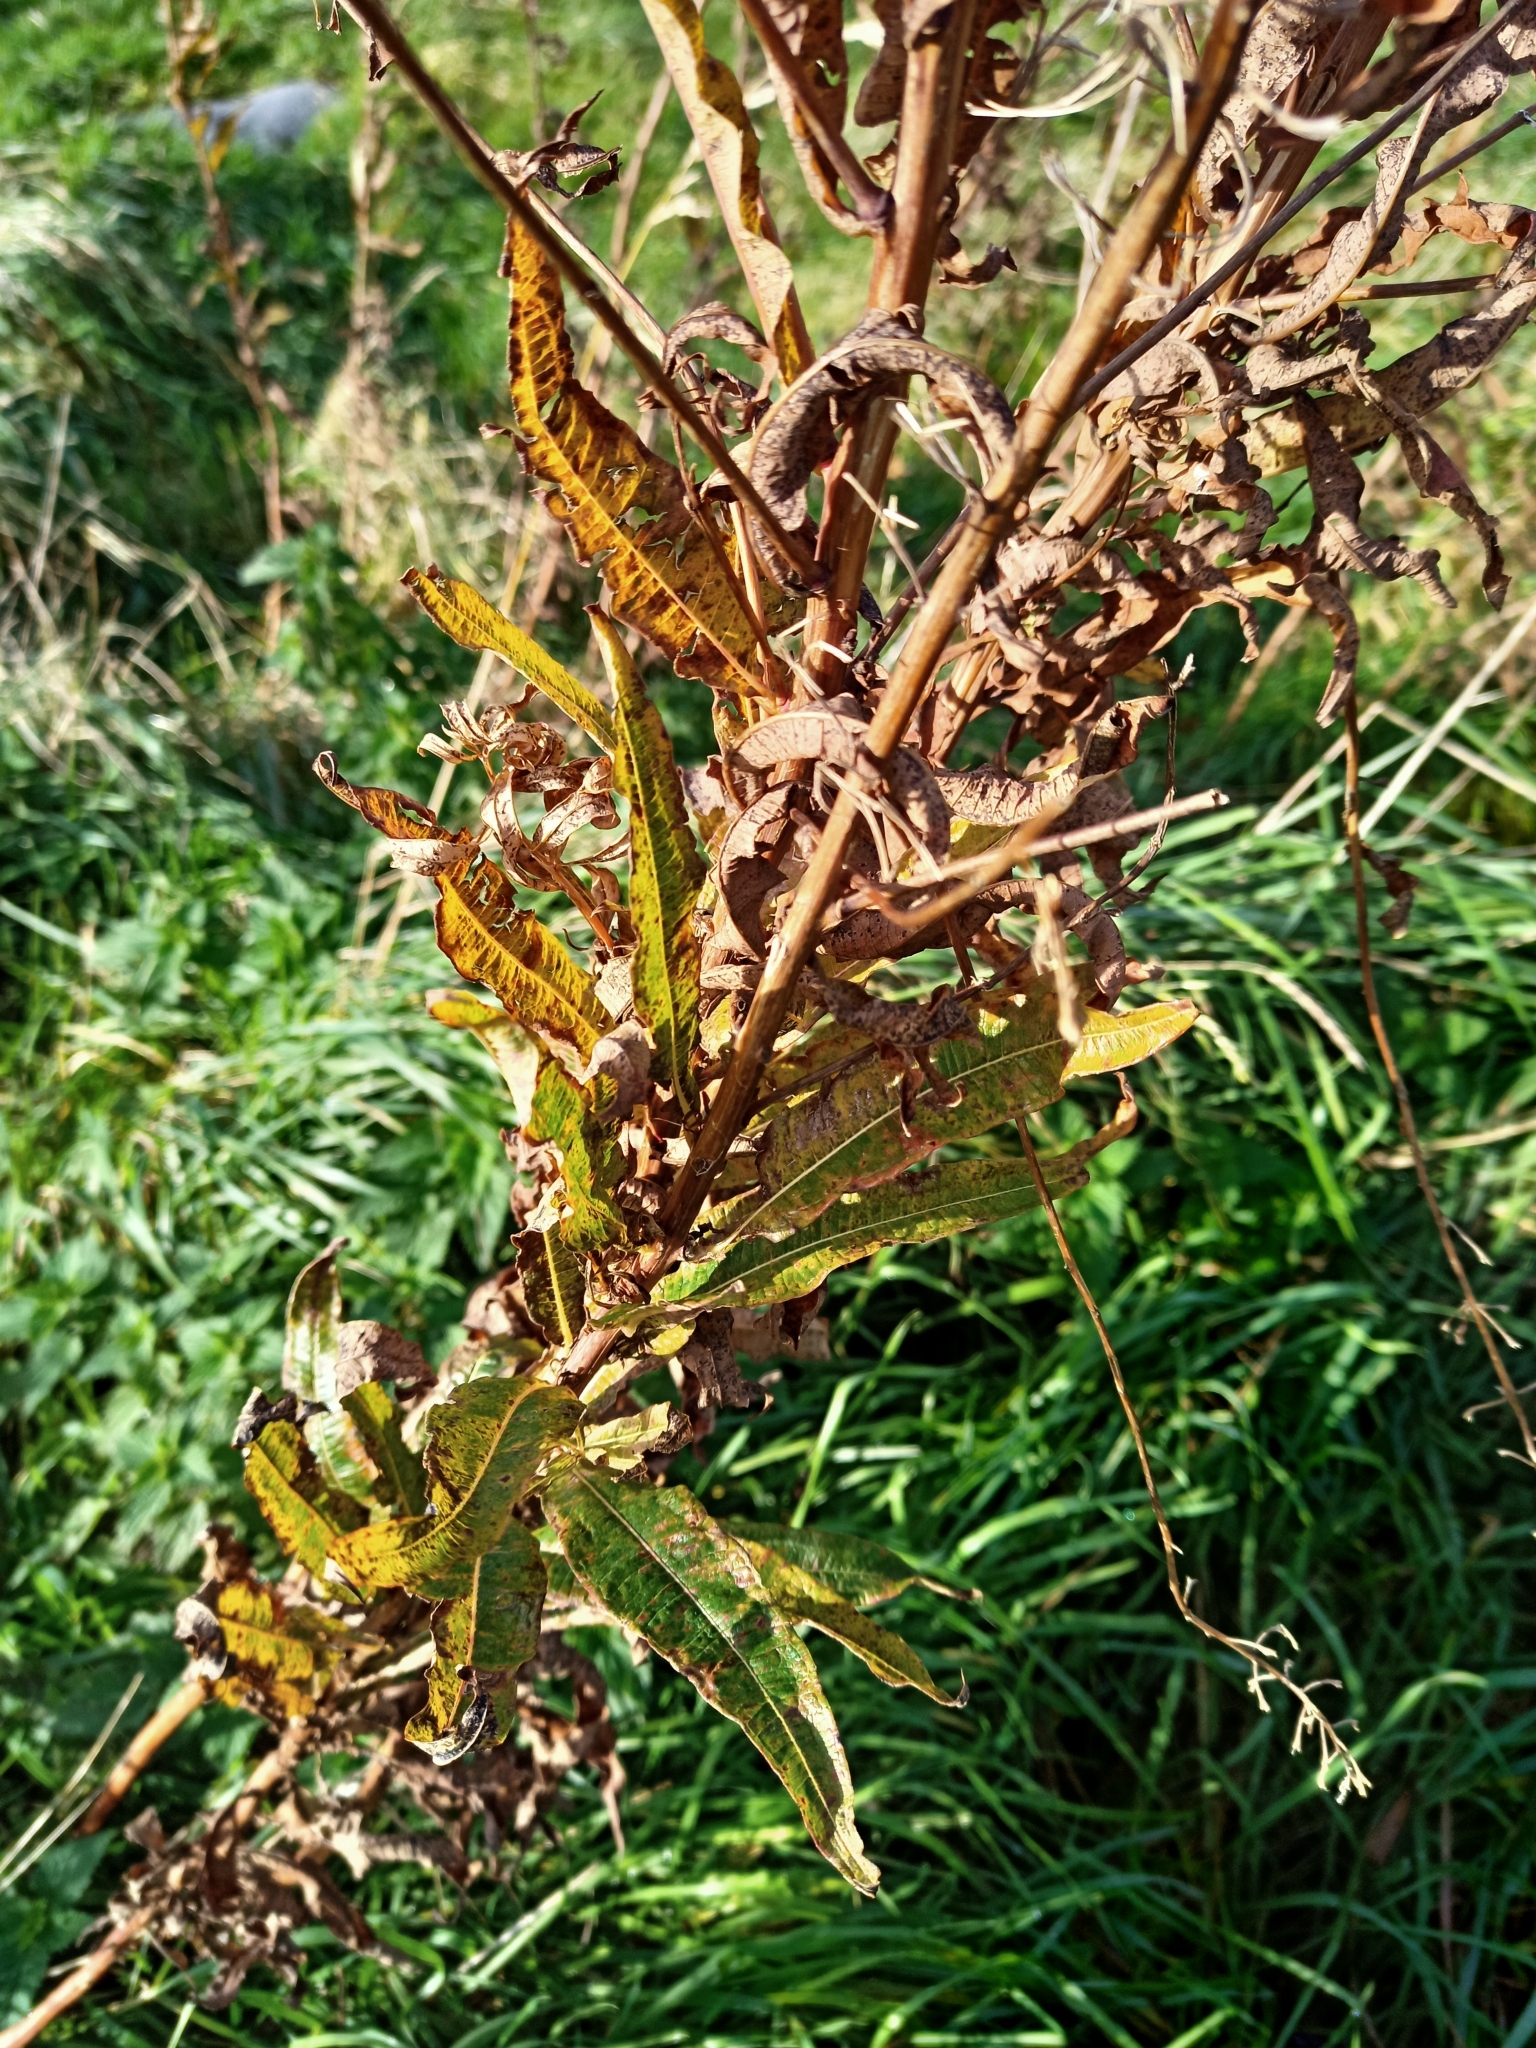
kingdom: Plantae
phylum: Tracheophyta
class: Magnoliopsida
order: Myrtales
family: Onagraceae
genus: Chamaenerion
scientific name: Chamaenerion angustifolium
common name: Fireweed
